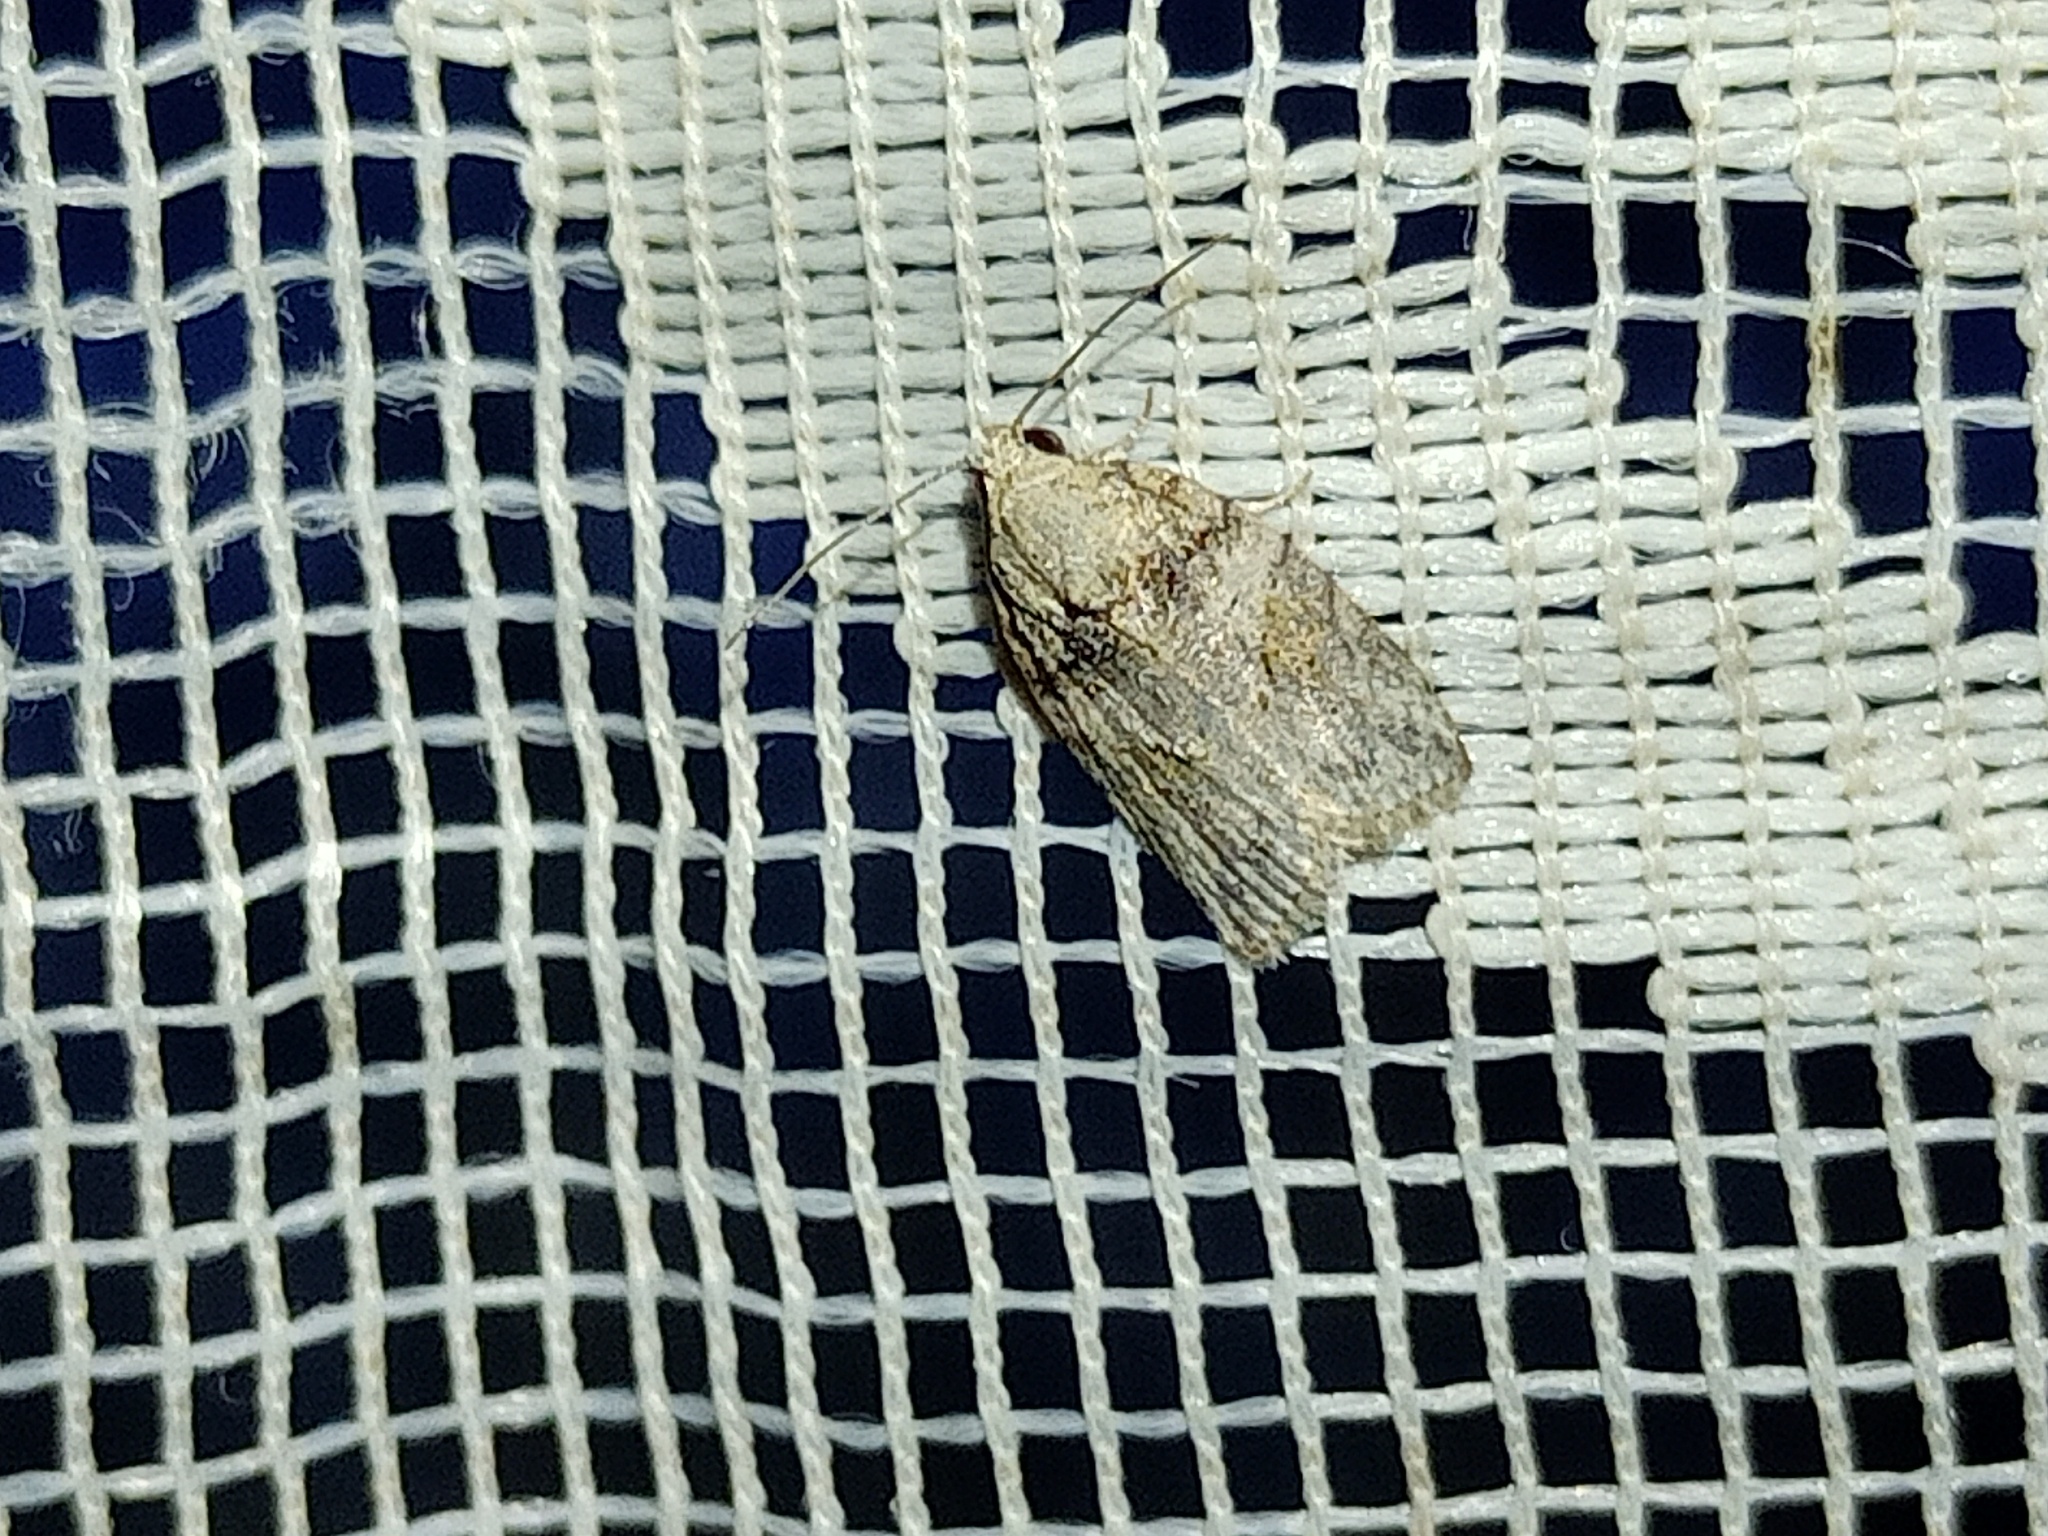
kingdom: Animalia
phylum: Arthropoda
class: Insecta
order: Lepidoptera
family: Nolidae
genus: Garella
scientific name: Garella nilotica
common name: Black-olive caterpillar moth
